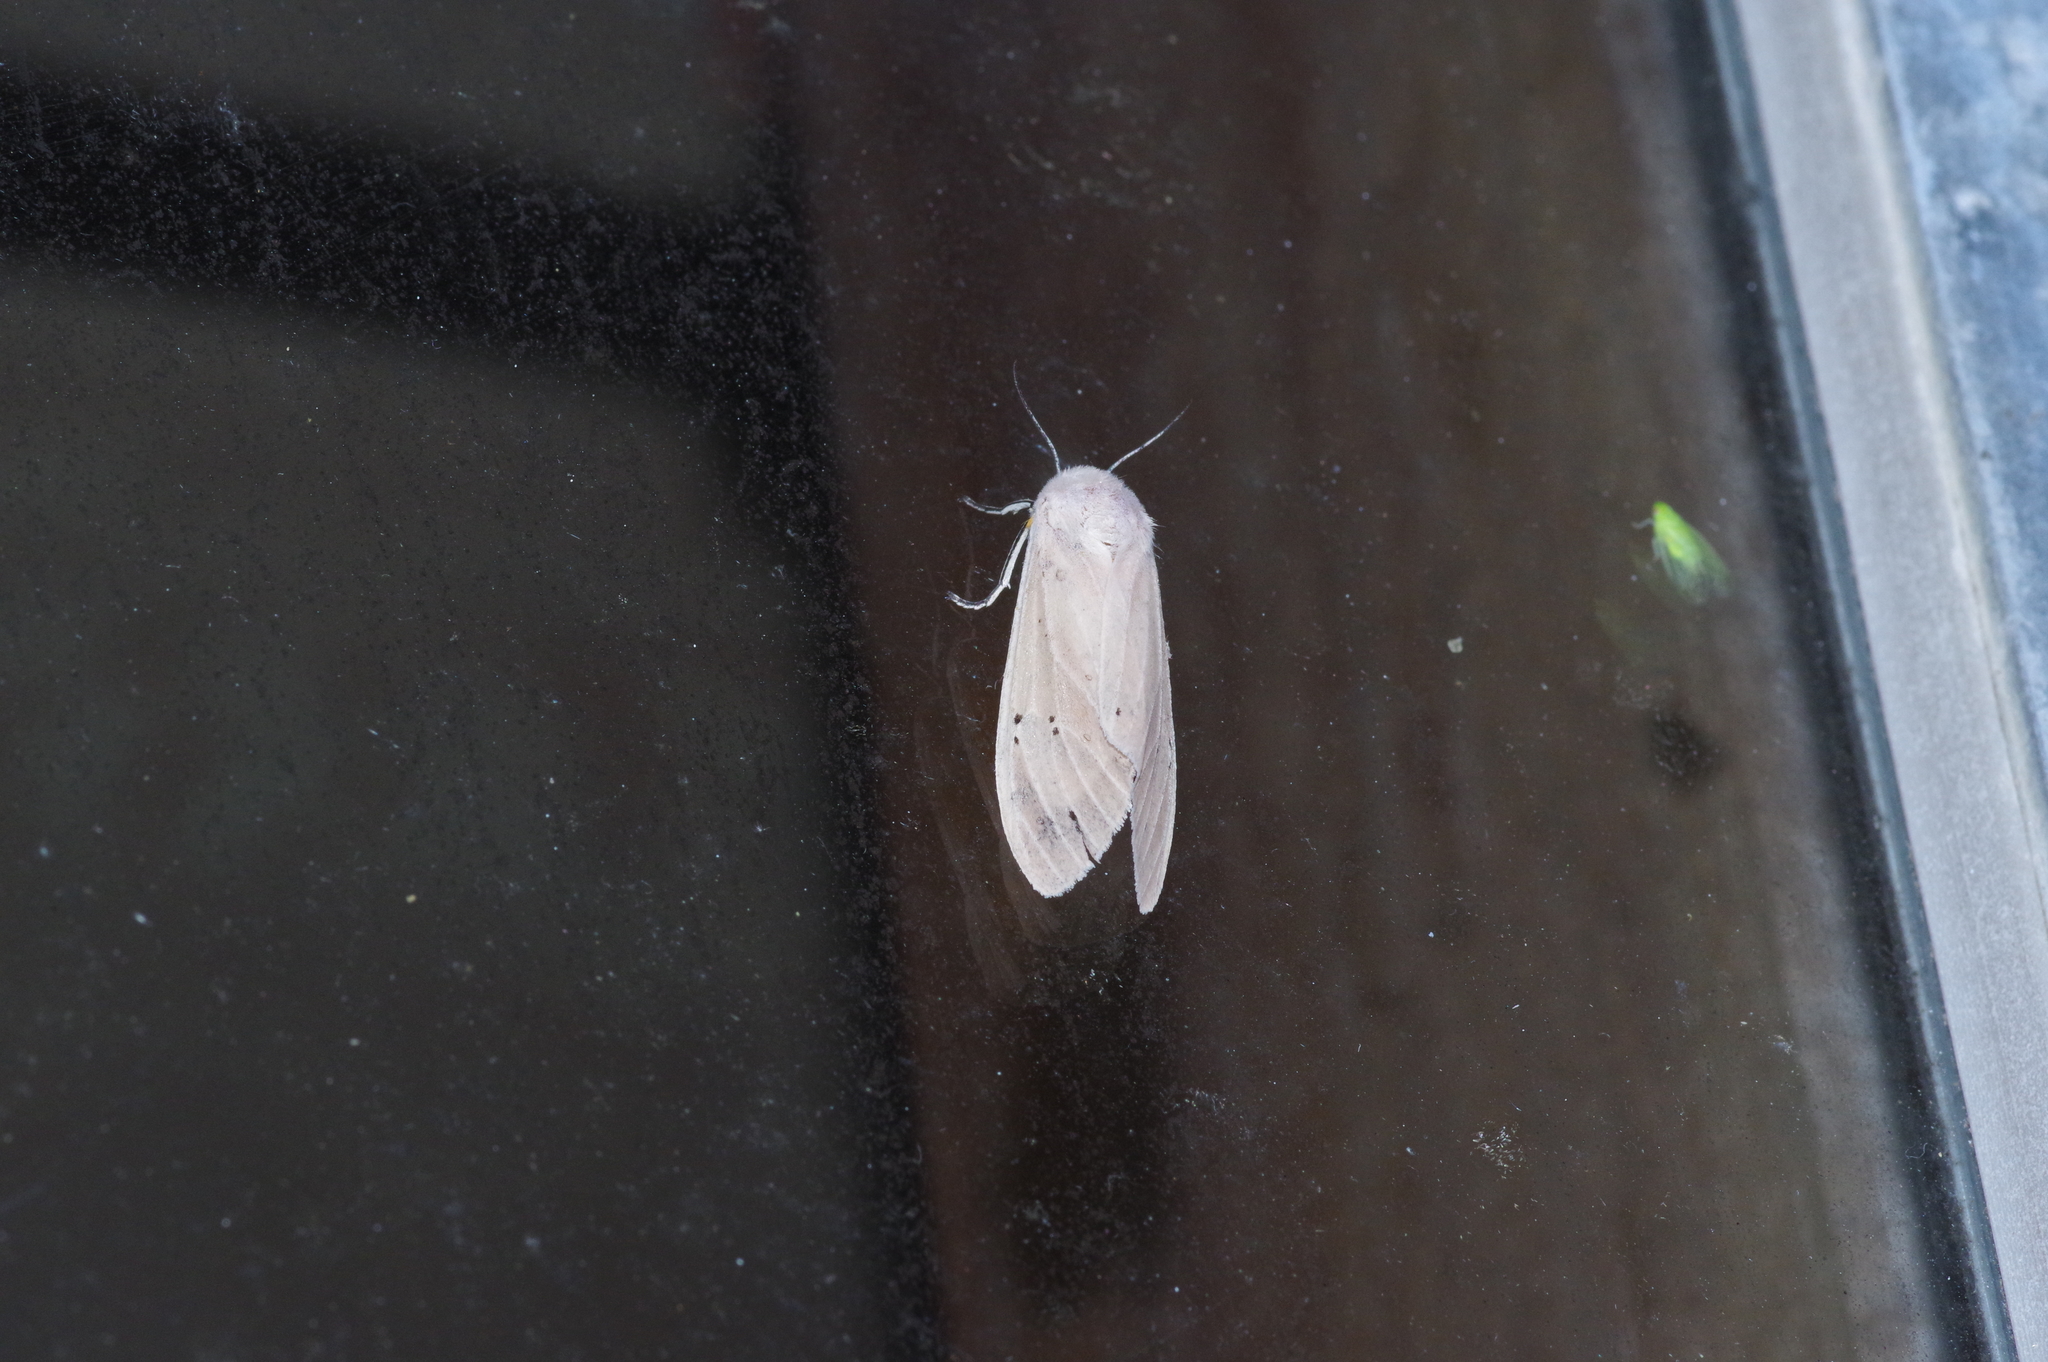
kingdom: Animalia
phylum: Arthropoda
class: Insecta
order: Lepidoptera
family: Erebidae
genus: Creatonotos
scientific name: Creatonotos transiens
